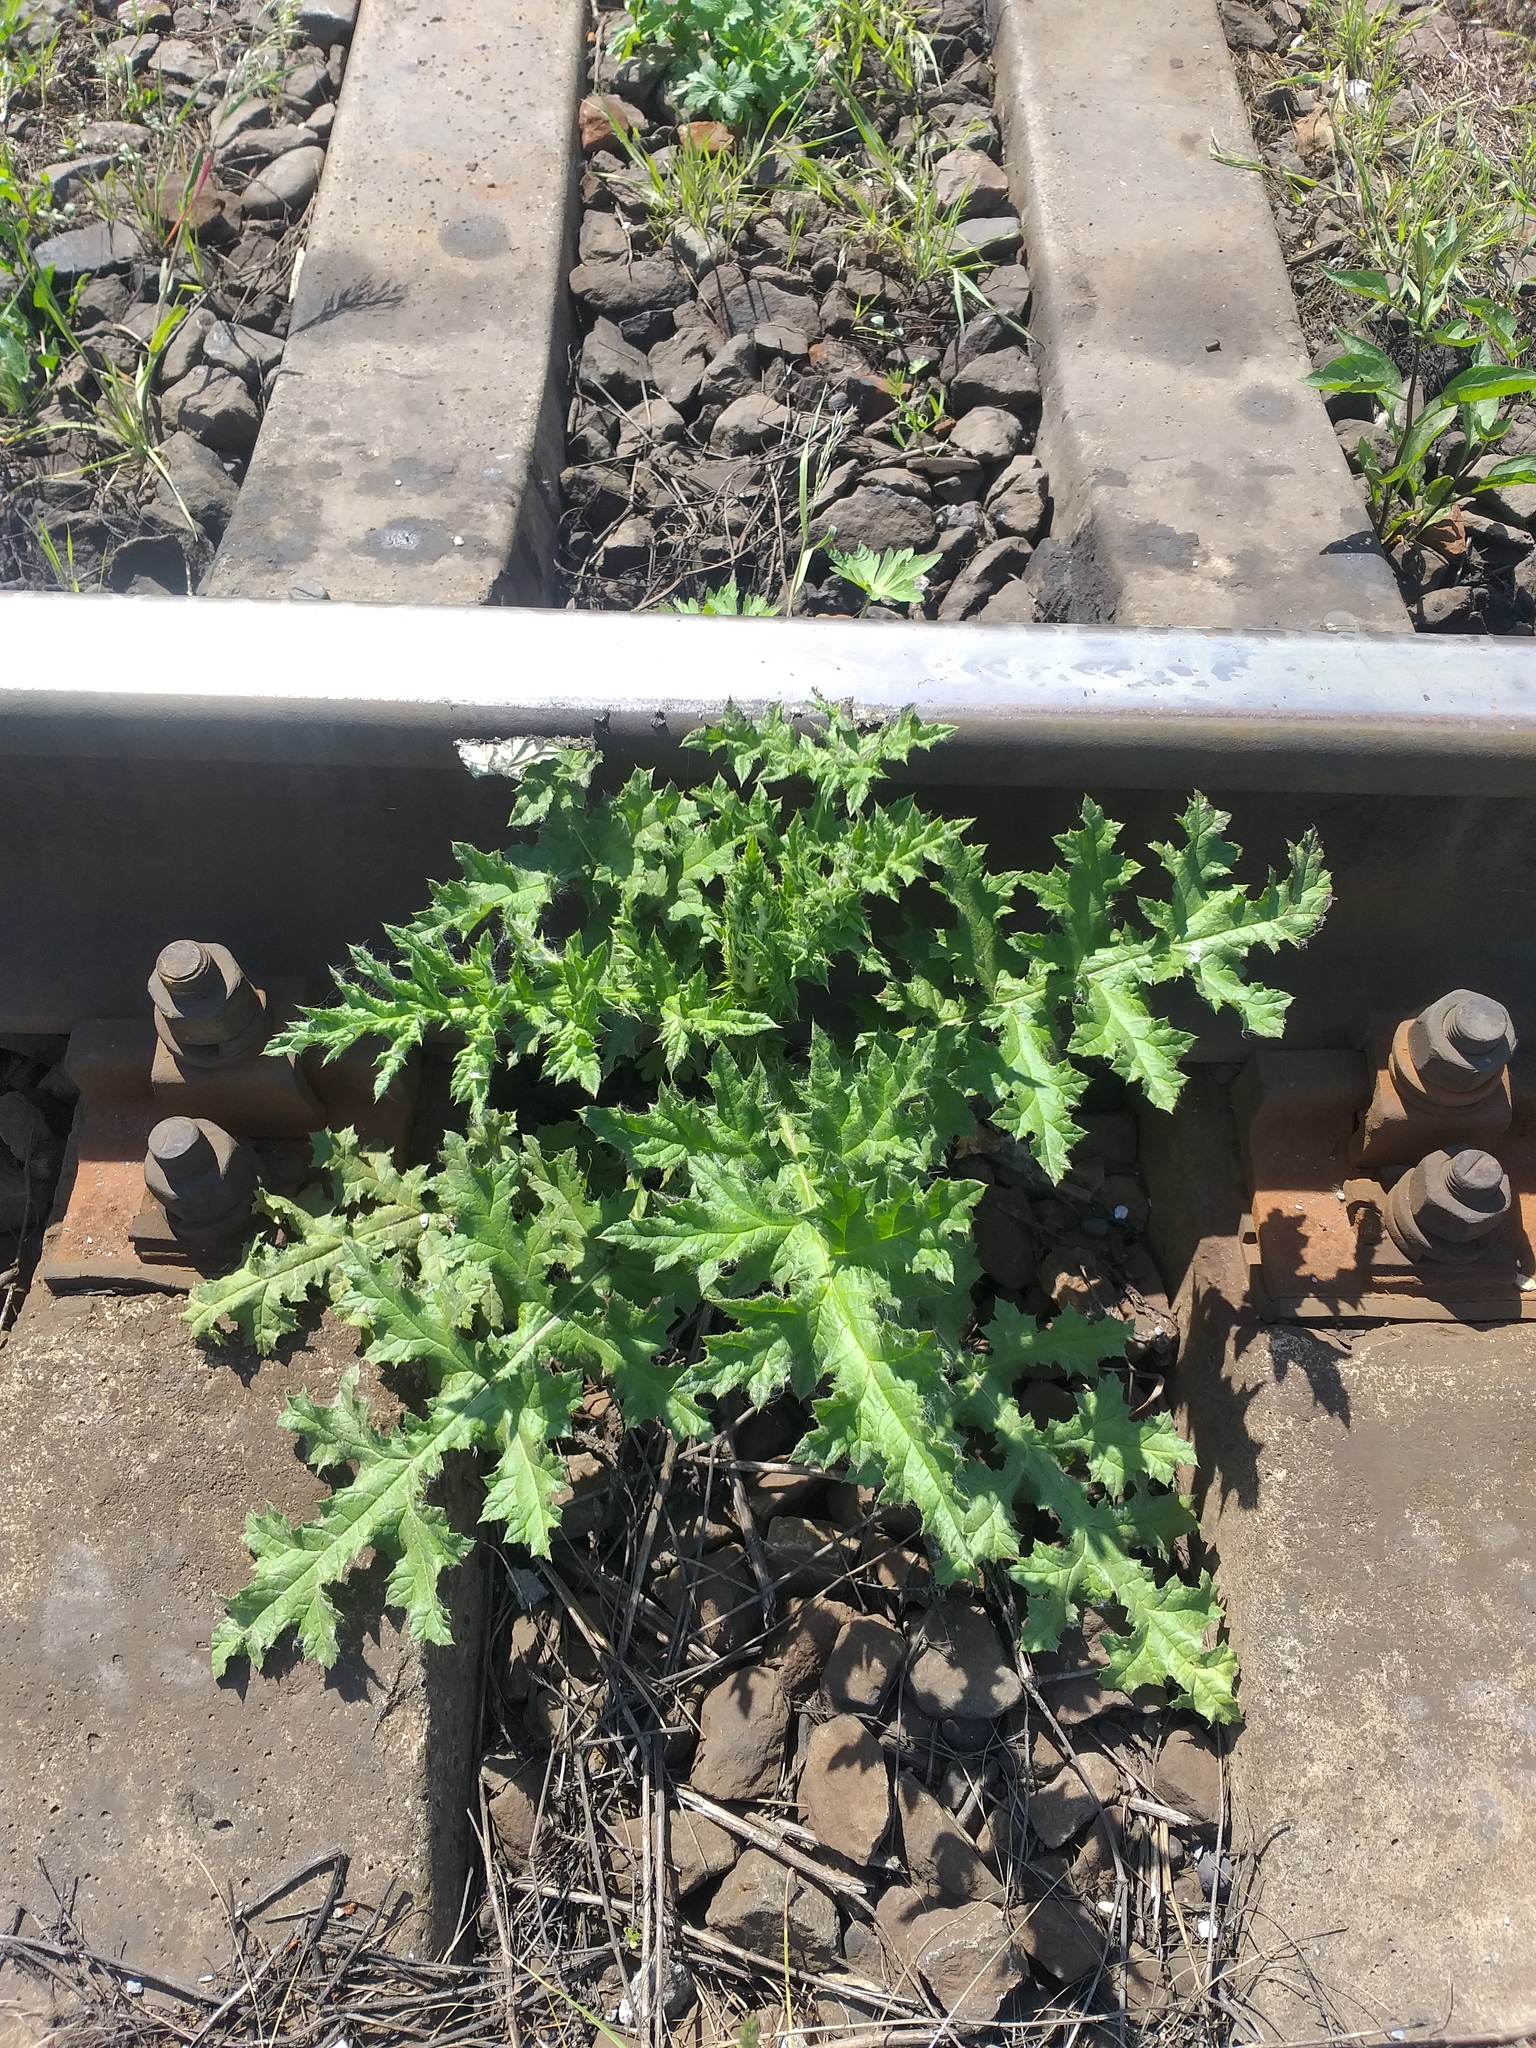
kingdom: Plantae
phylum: Tracheophyta
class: Magnoliopsida
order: Asterales
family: Asteraceae
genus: Echinops
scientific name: Echinops sphaerocephalus
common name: Glandular globe-thistle
